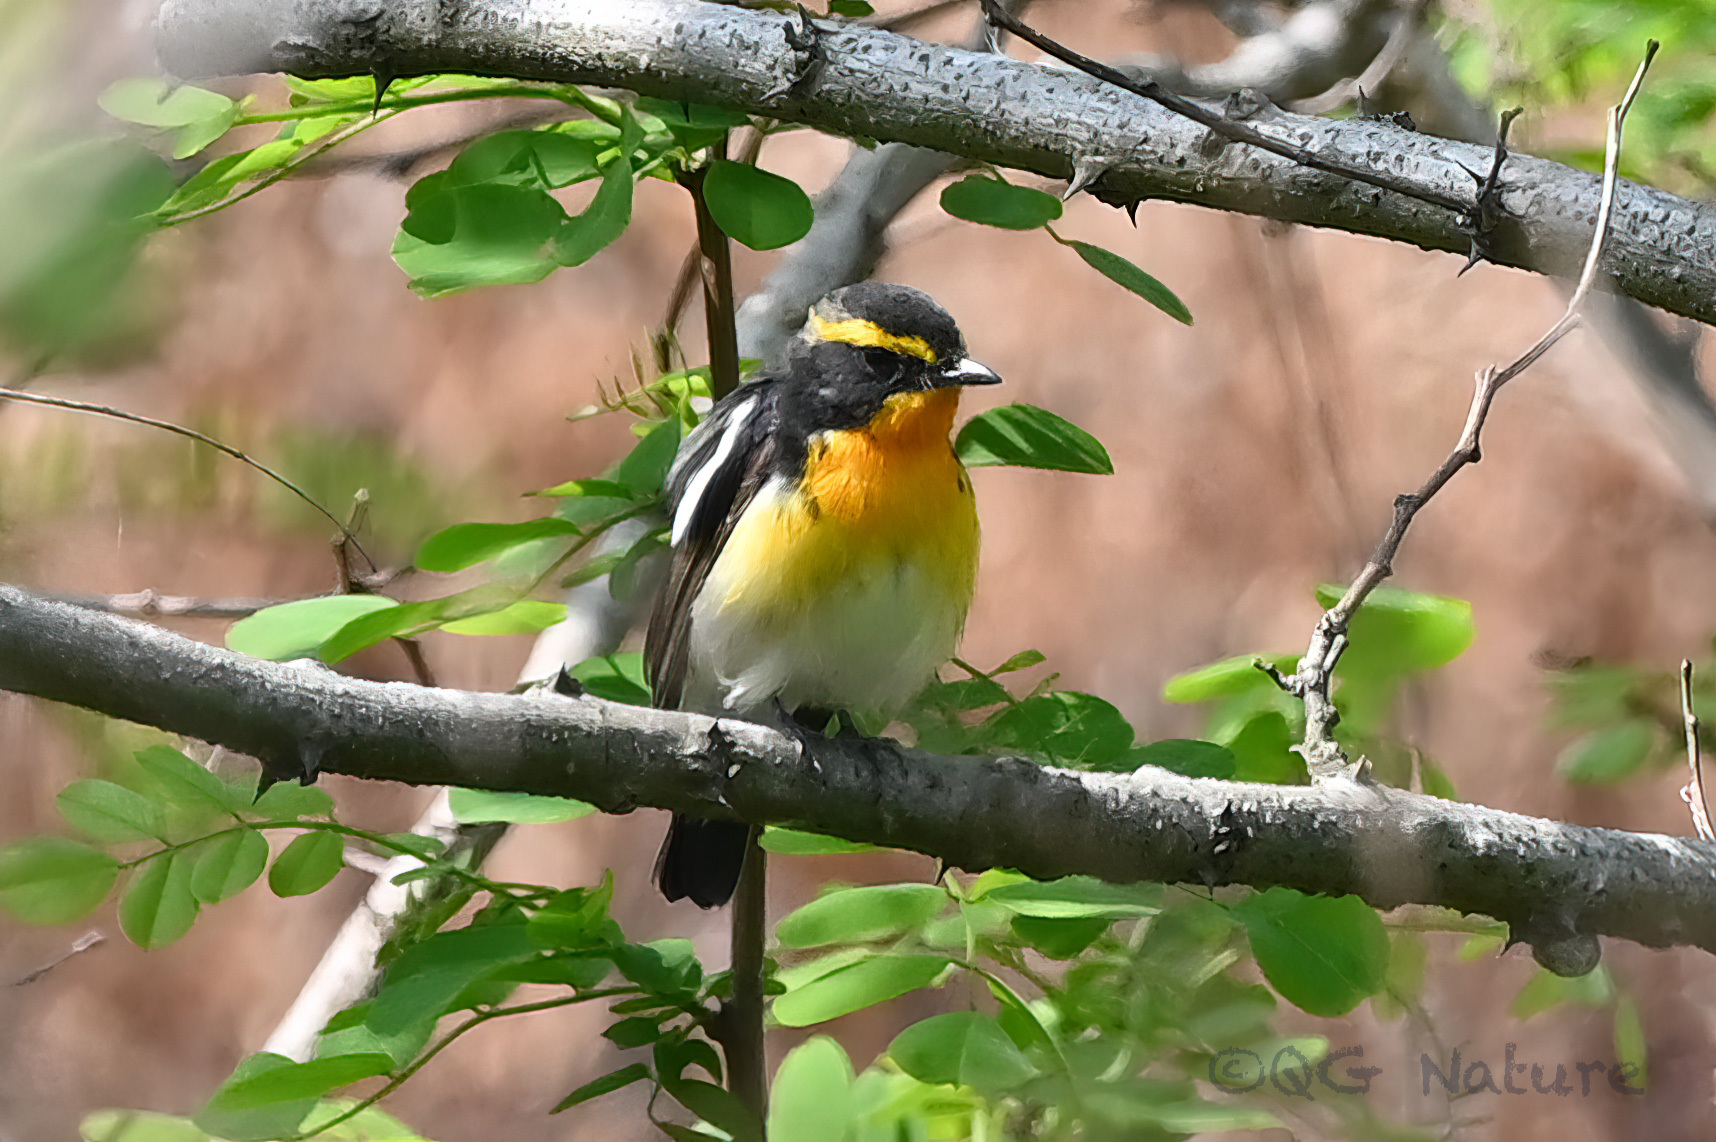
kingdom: Animalia
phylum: Chordata
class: Aves
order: Passeriformes
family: Muscicapidae
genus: Ficedula
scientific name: Ficedula narcissina
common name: Narcissus flycatcher
